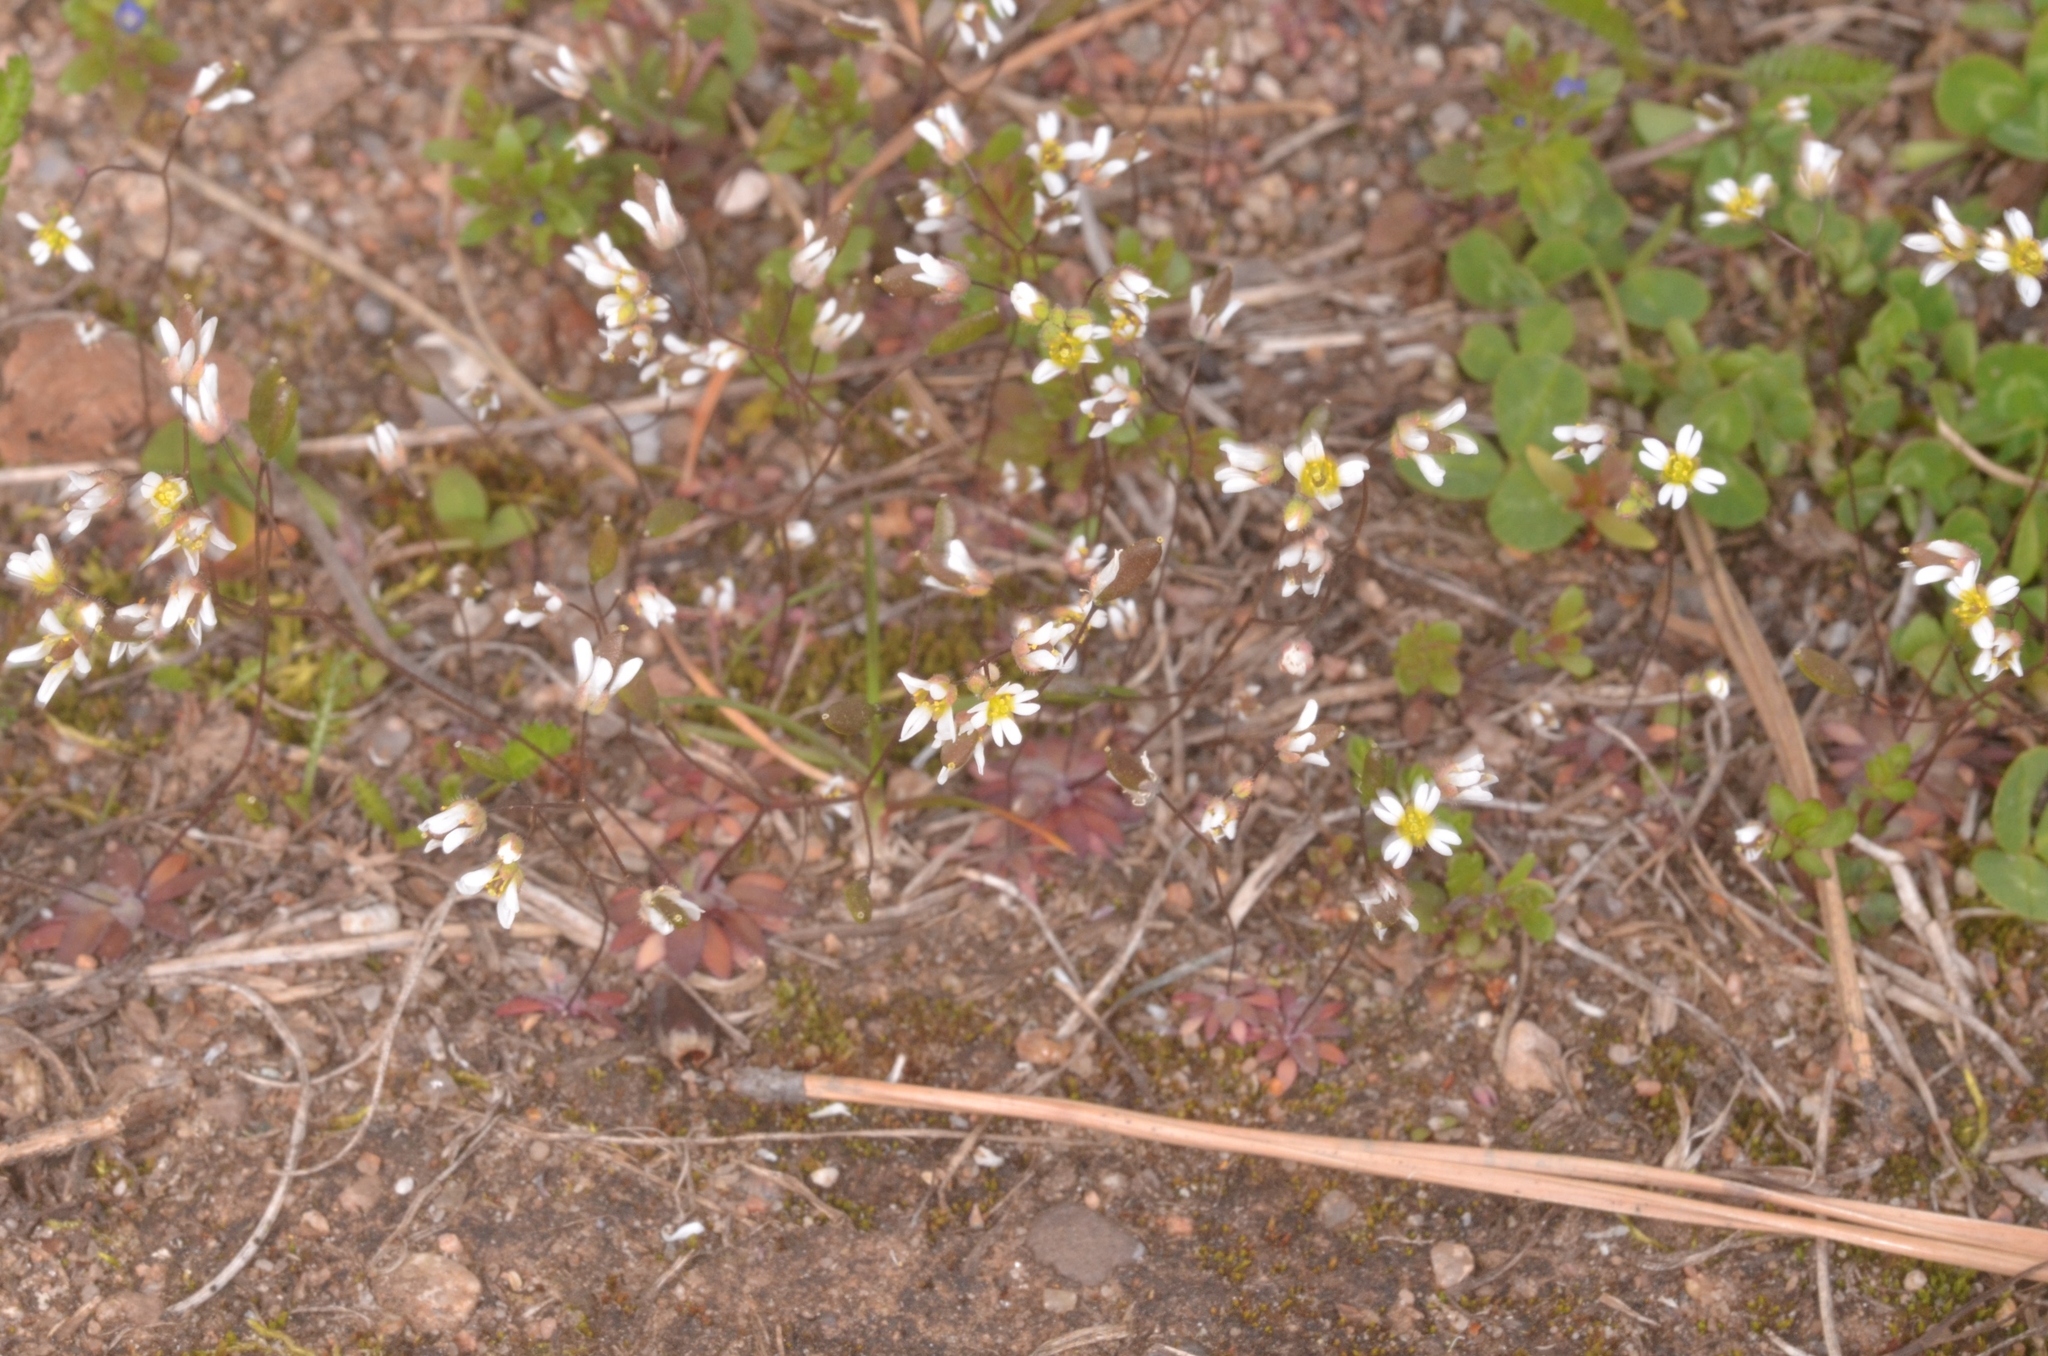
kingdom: Plantae
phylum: Tracheophyta
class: Magnoliopsida
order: Brassicales
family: Brassicaceae
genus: Draba
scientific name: Draba verna
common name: Spring draba
